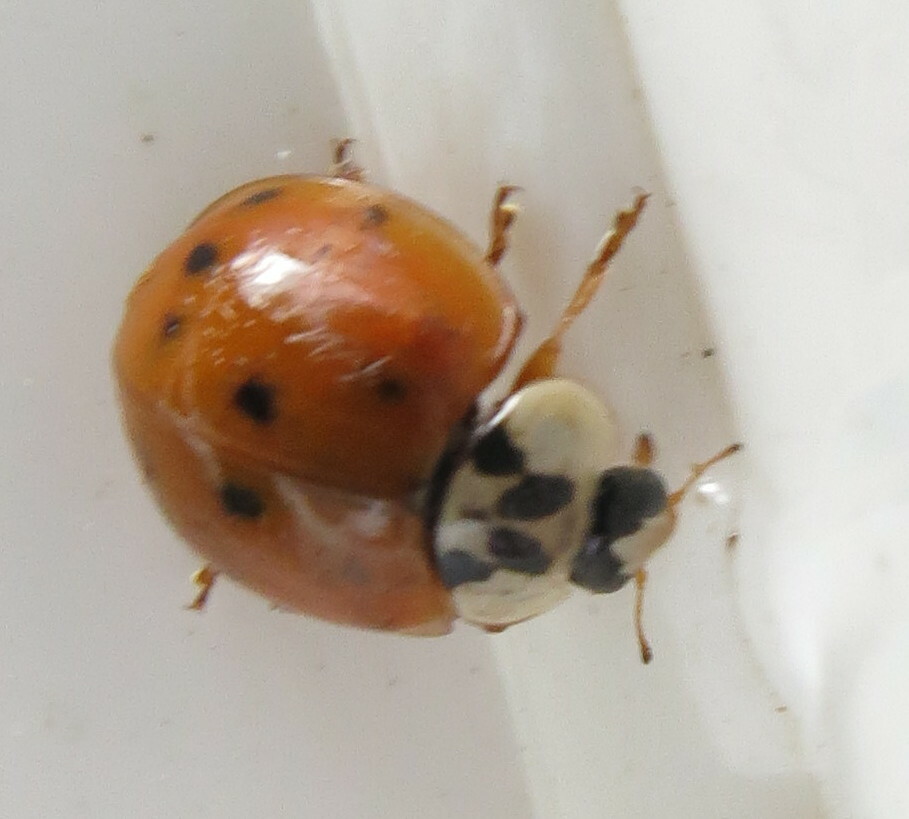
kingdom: Animalia
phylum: Arthropoda
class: Insecta
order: Coleoptera
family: Coccinellidae
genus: Harmonia
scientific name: Harmonia axyridis
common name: Harlequin ladybird
